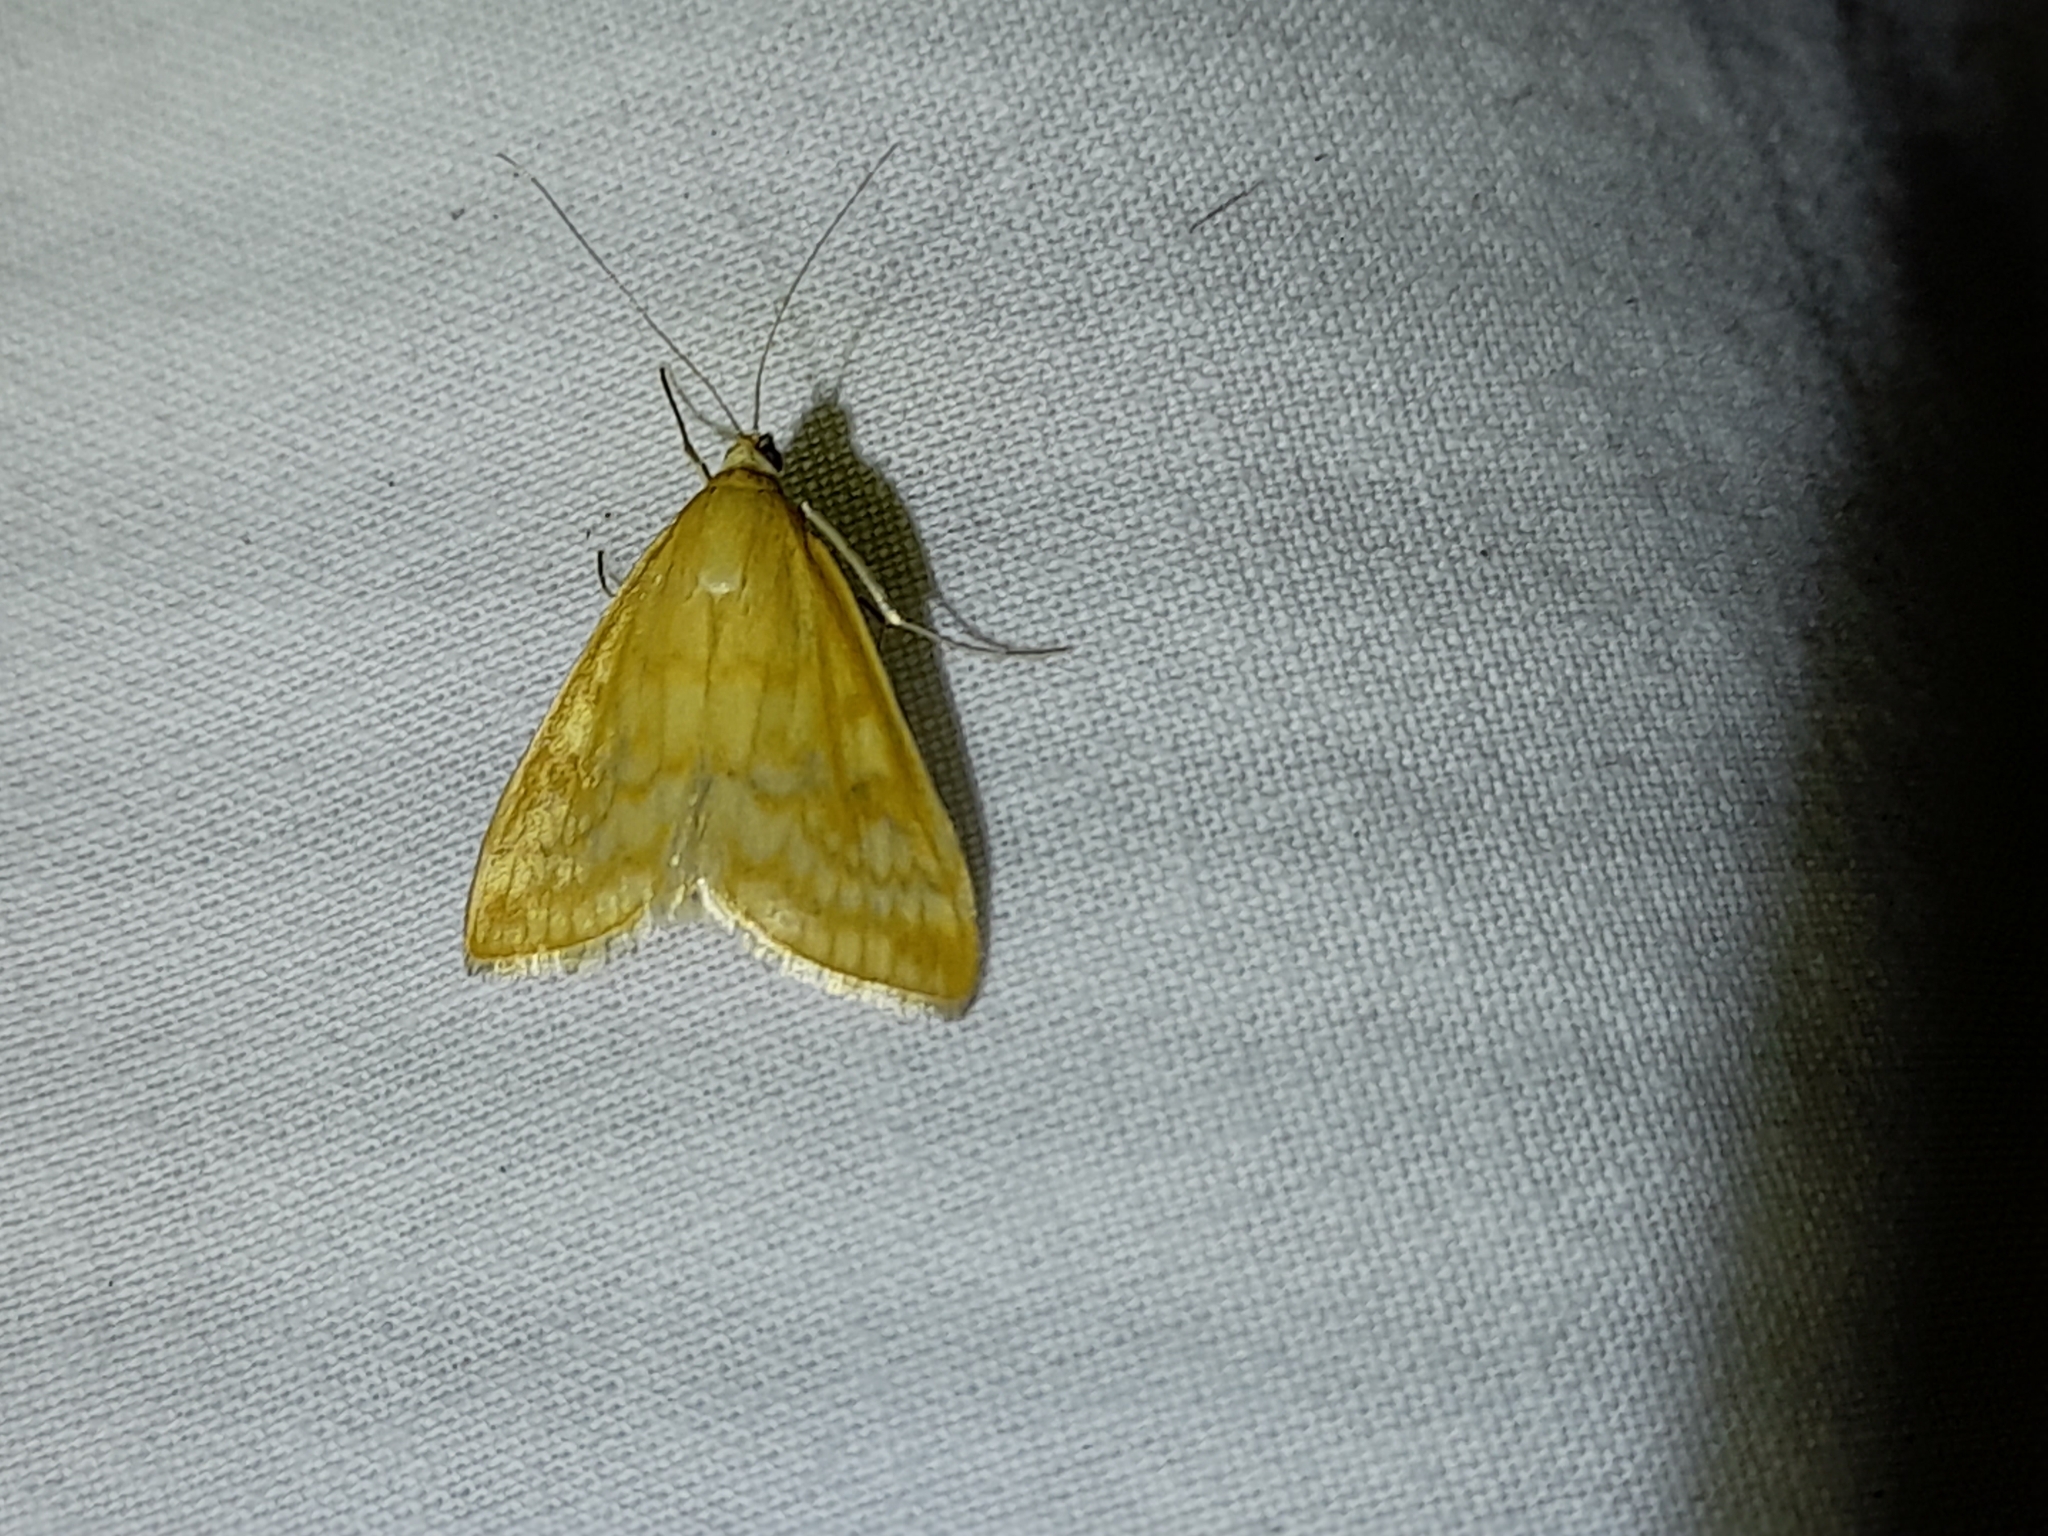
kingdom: Animalia
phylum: Arthropoda
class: Insecta
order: Lepidoptera
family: Crambidae
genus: Sitochroa
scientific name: Sitochroa verticalis
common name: Lesser pearl
